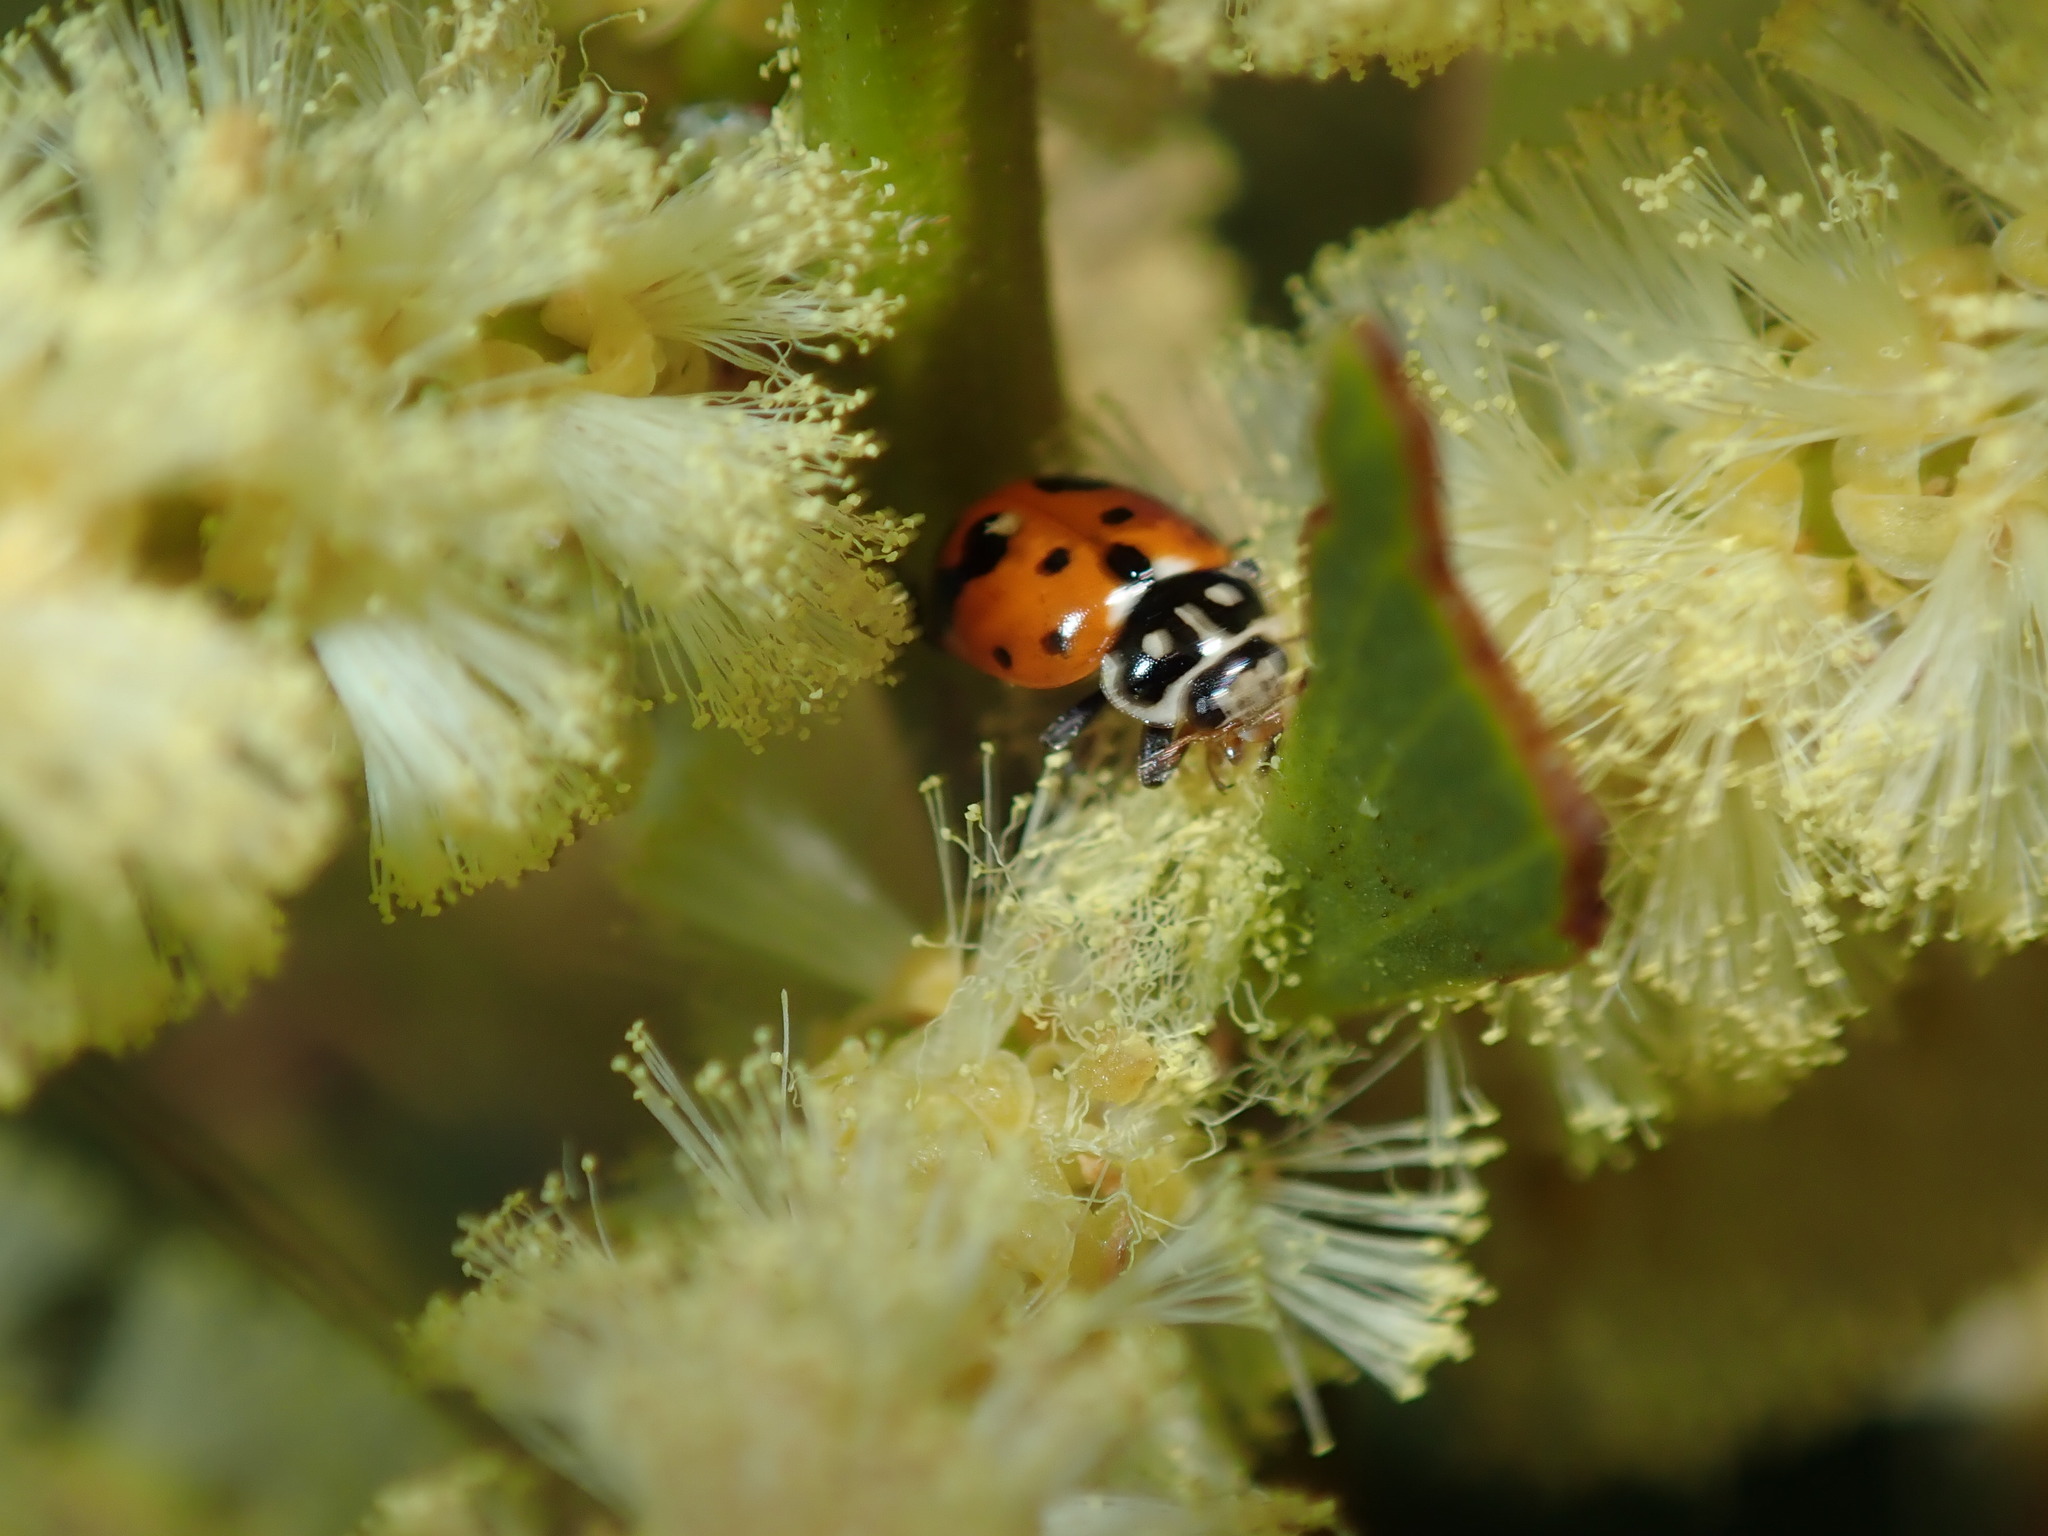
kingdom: Animalia
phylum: Arthropoda
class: Insecta
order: Coleoptera
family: Coccinellidae
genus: Hippodamia
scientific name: Hippodamia variegata
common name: Ladybird beetle
